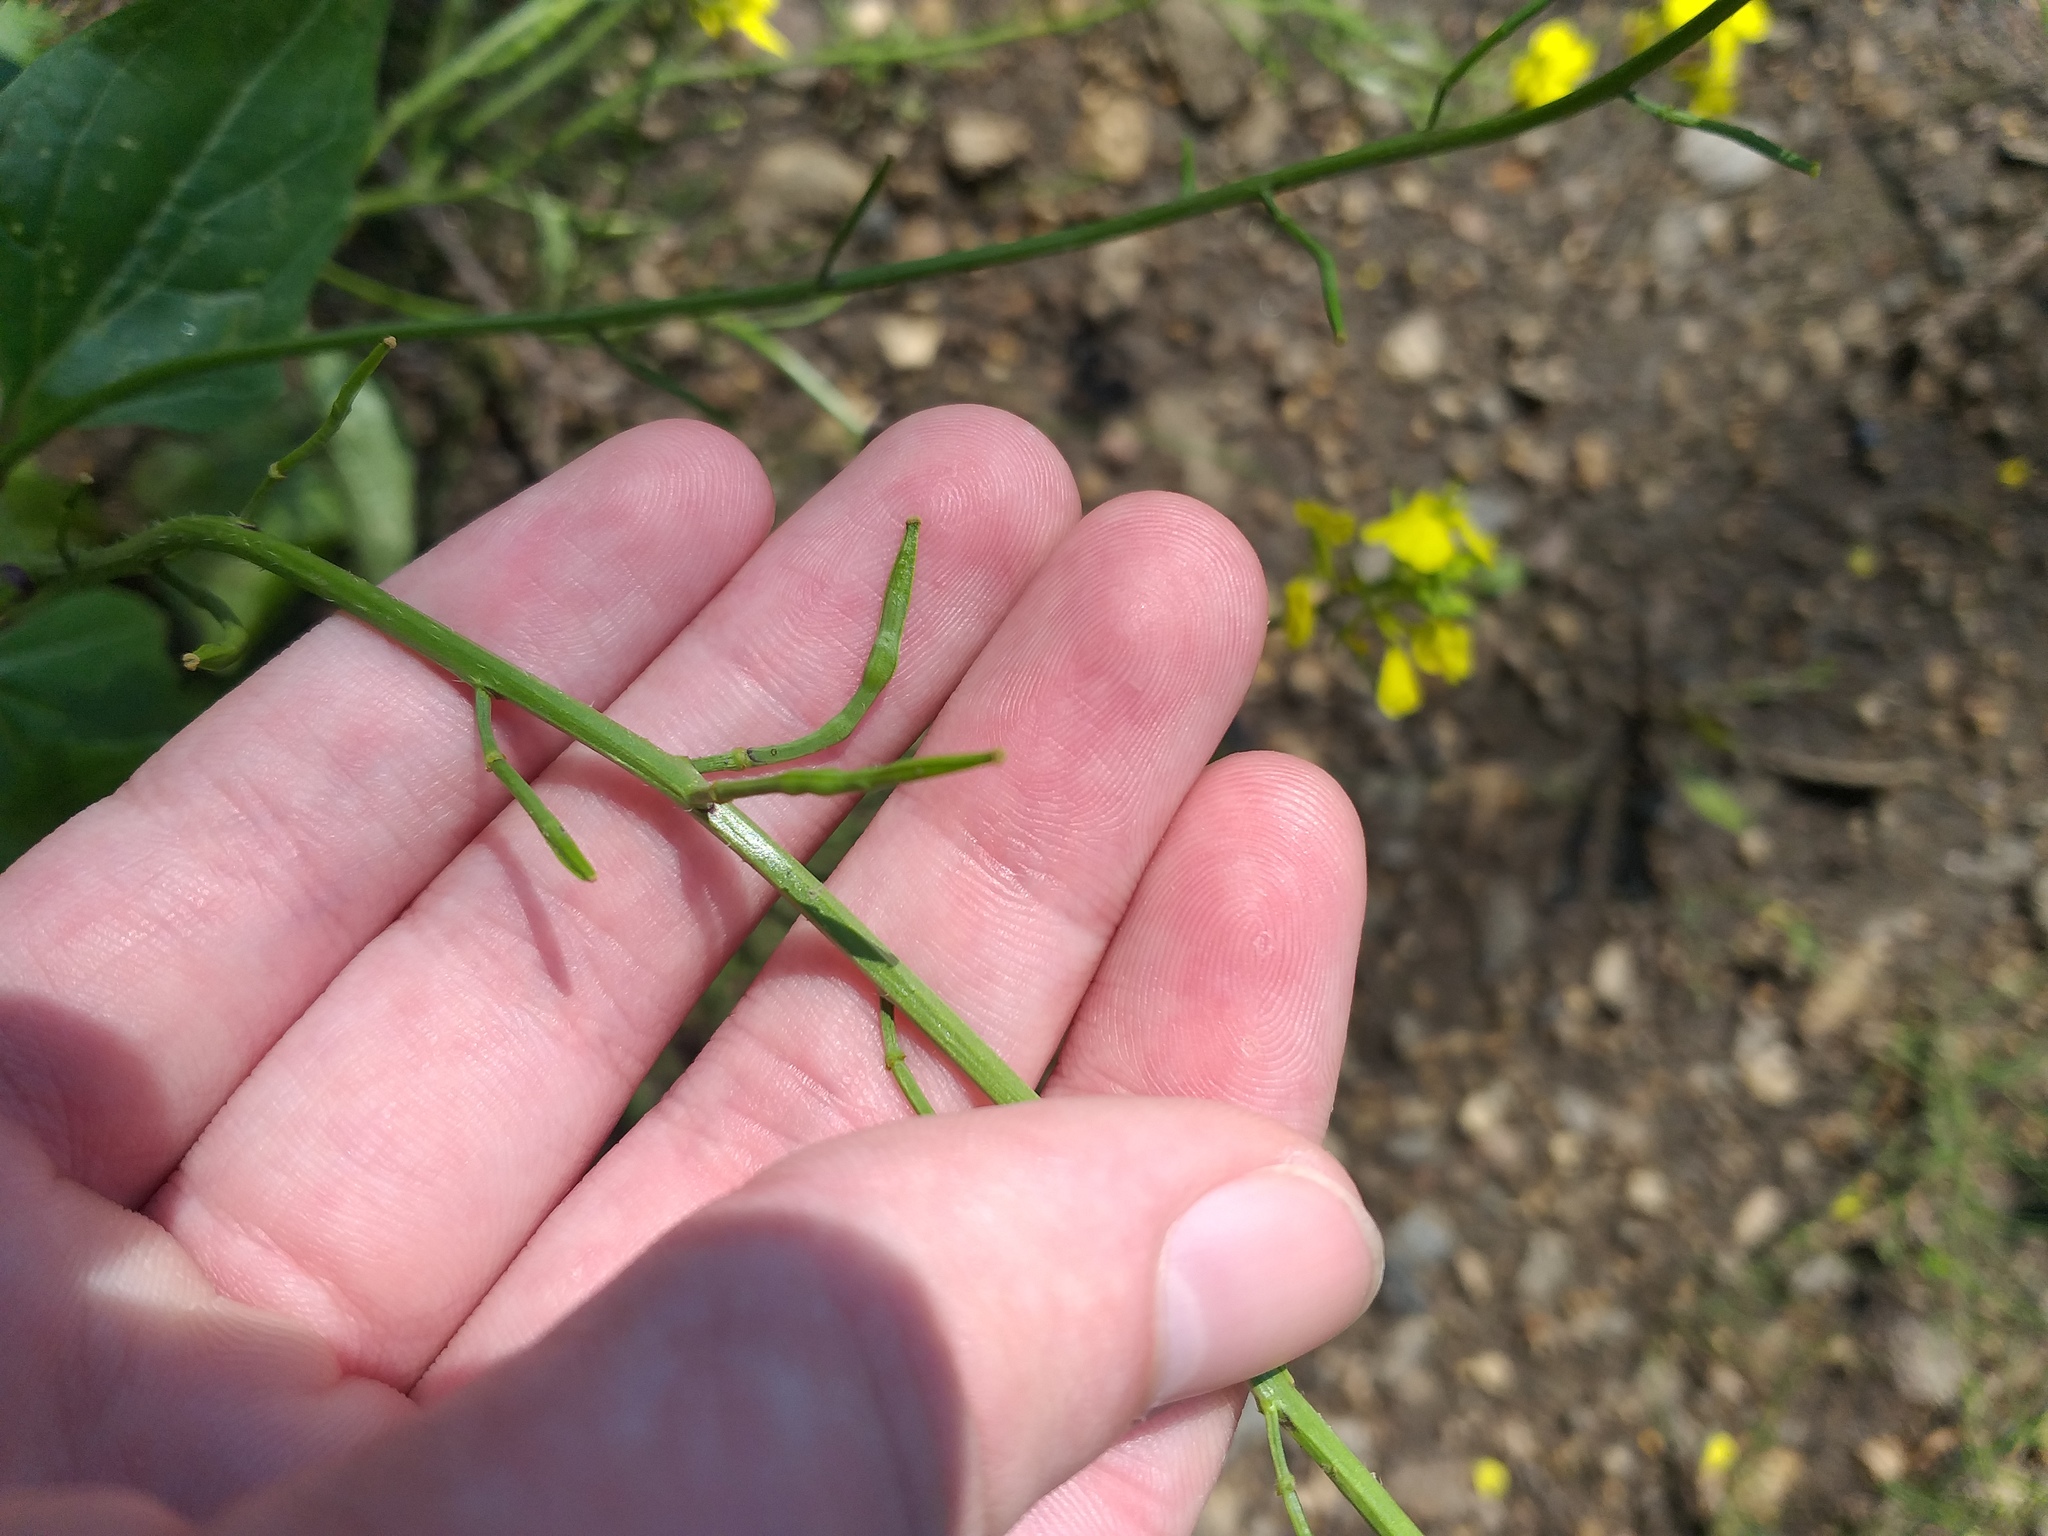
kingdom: Plantae
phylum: Tracheophyta
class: Magnoliopsida
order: Brassicales
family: Brassicaceae
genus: Sinapis
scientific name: Sinapis arvensis
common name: Charlock
